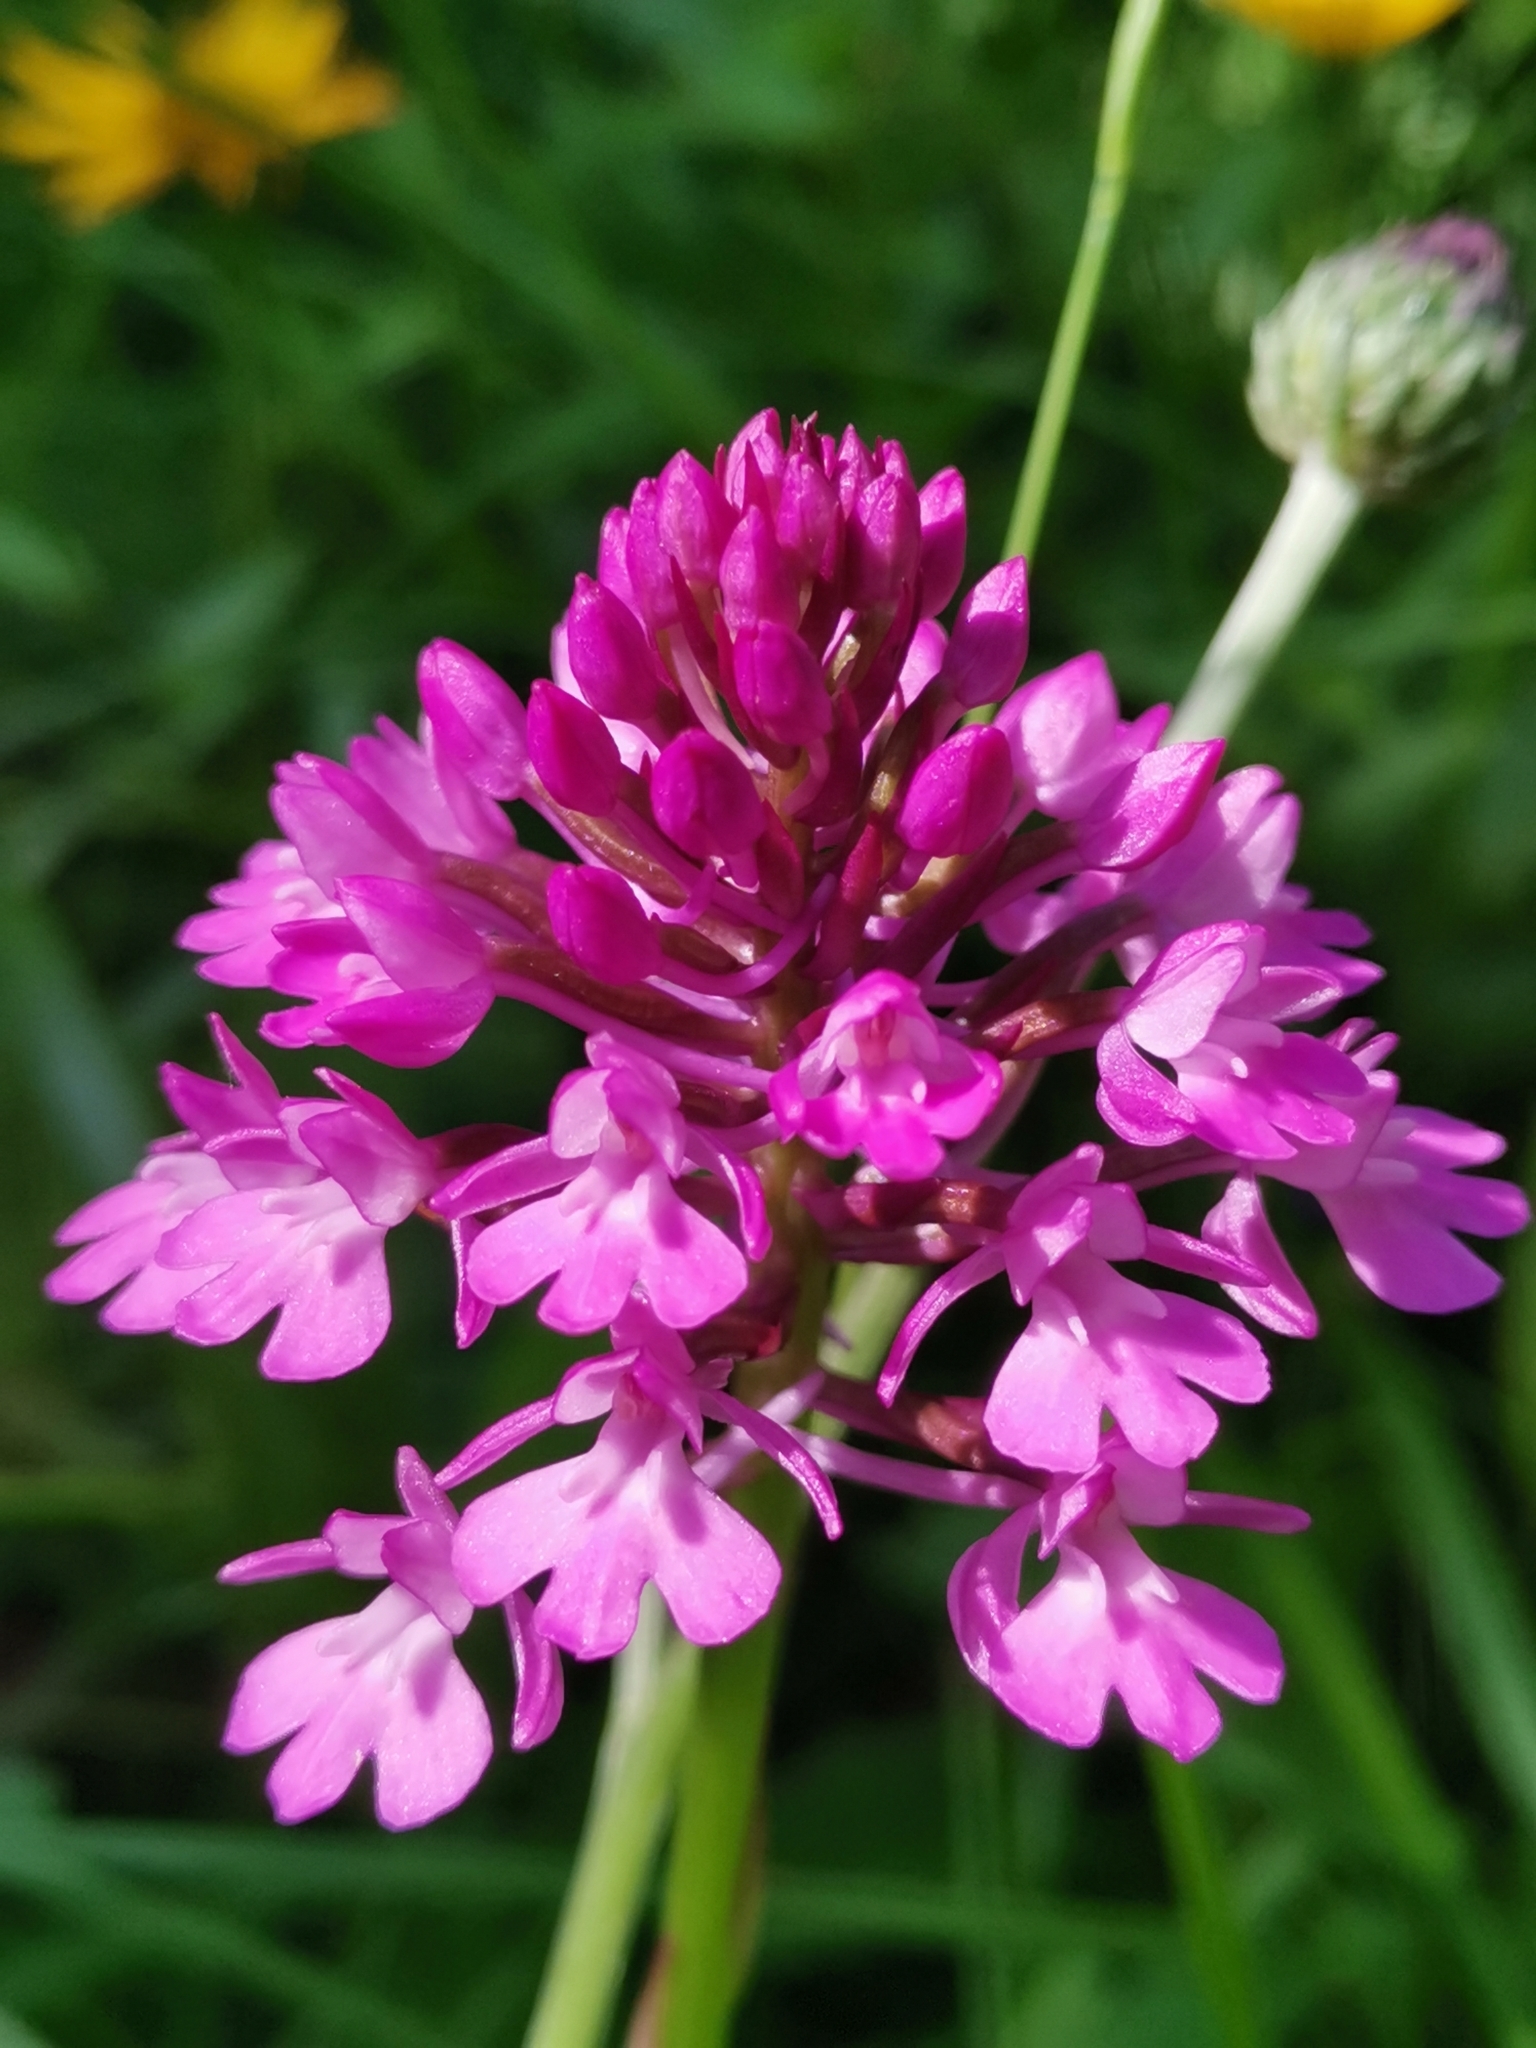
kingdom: Plantae
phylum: Tracheophyta
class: Liliopsida
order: Asparagales
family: Orchidaceae
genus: Anacamptis
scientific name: Anacamptis pyramidalis
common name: Pyramidal orchid
